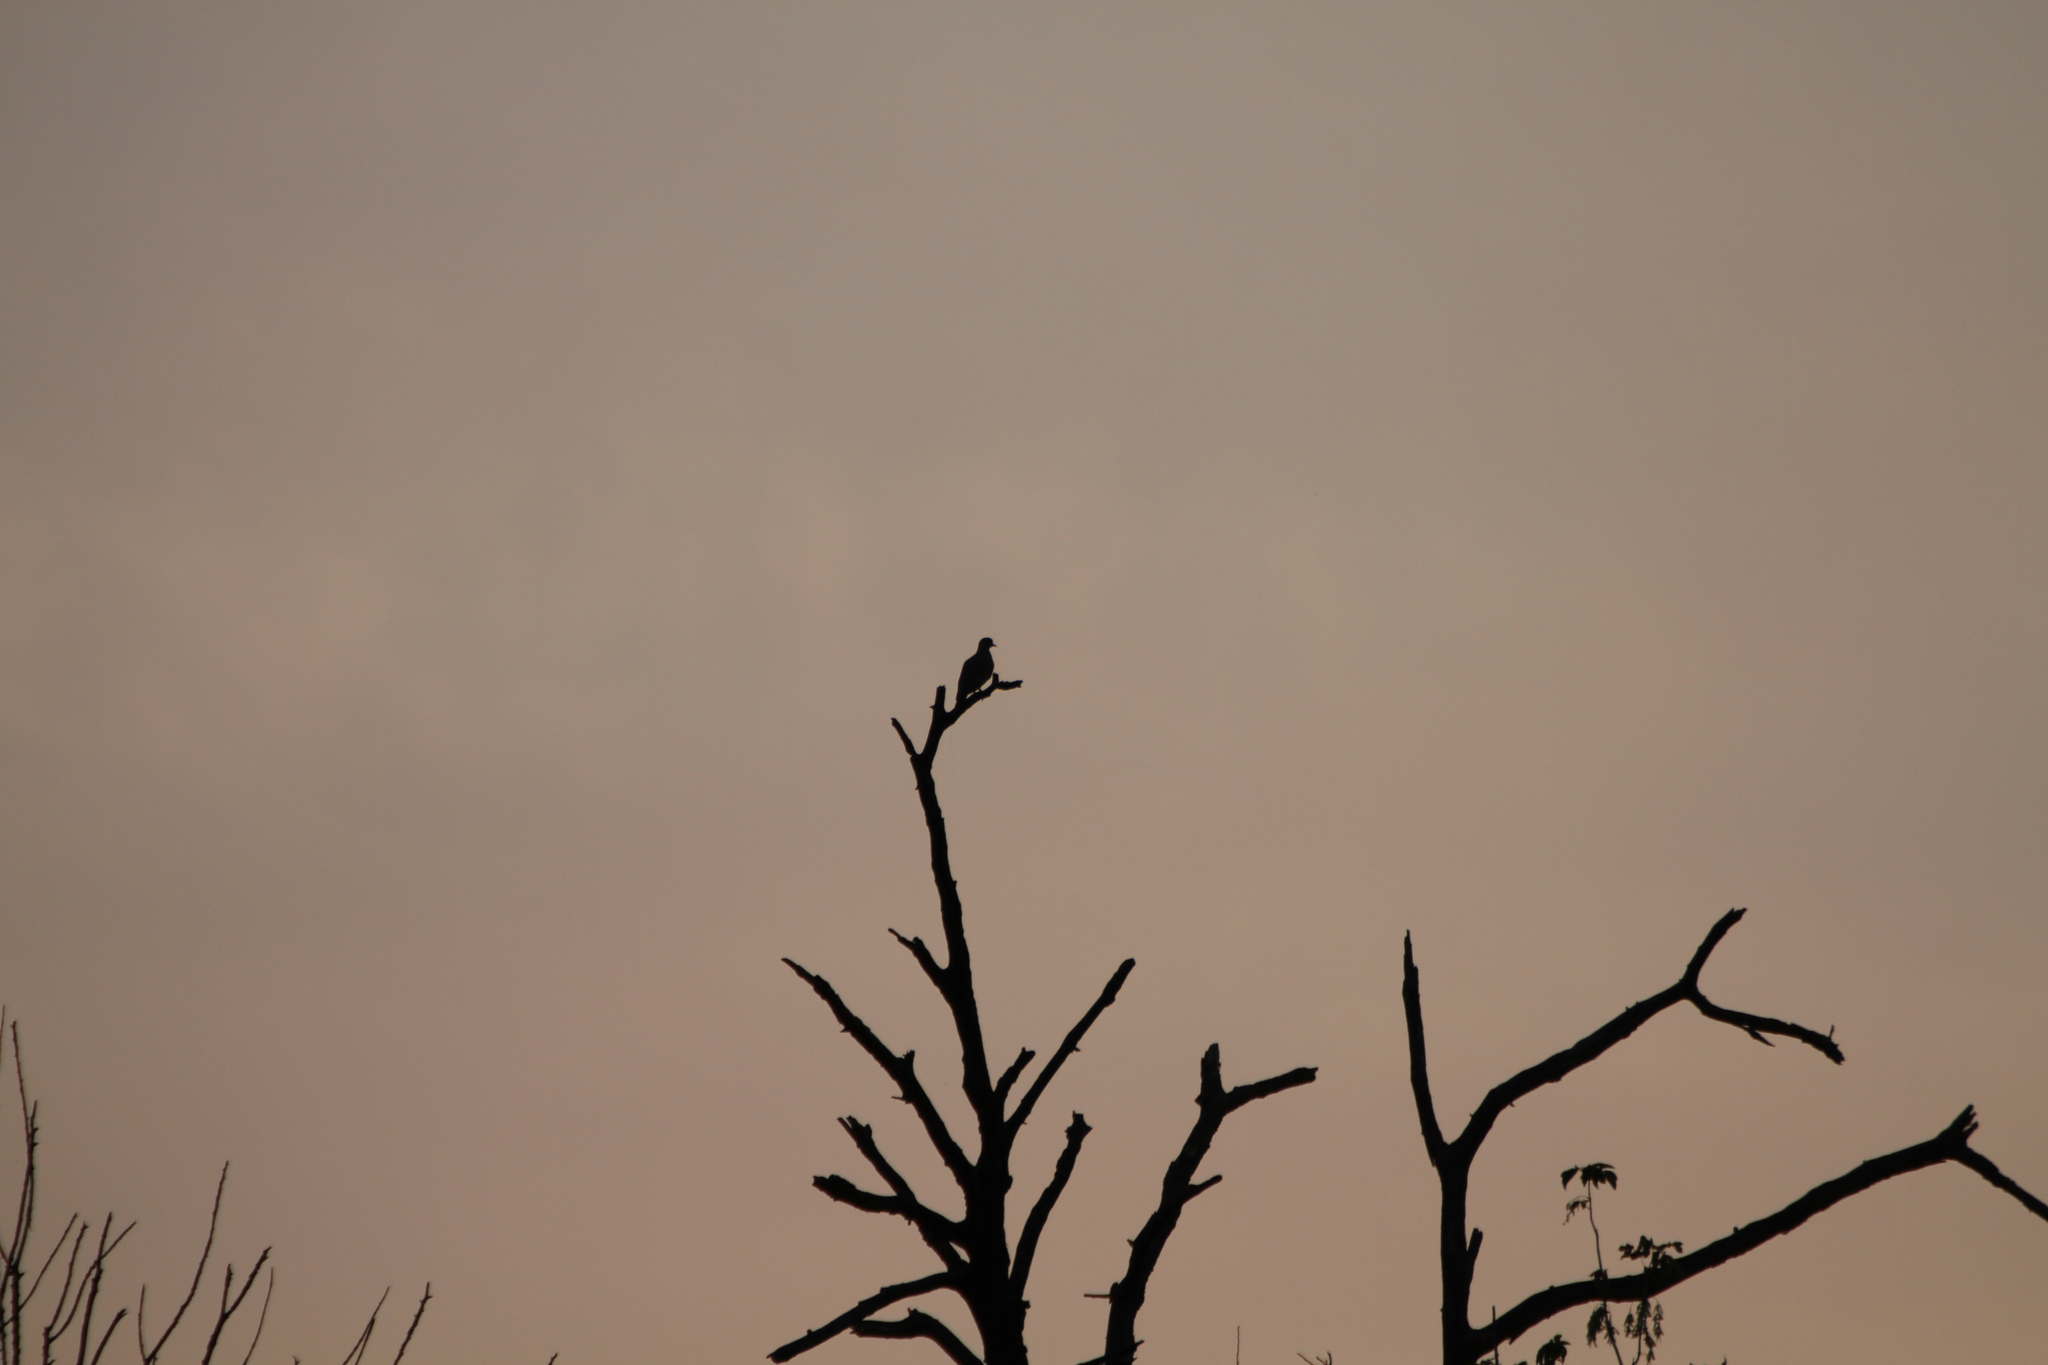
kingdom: Animalia
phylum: Chordata
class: Aves
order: Columbiformes
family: Columbidae
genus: Streptopelia
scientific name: Streptopelia turtur
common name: European turtle dove
